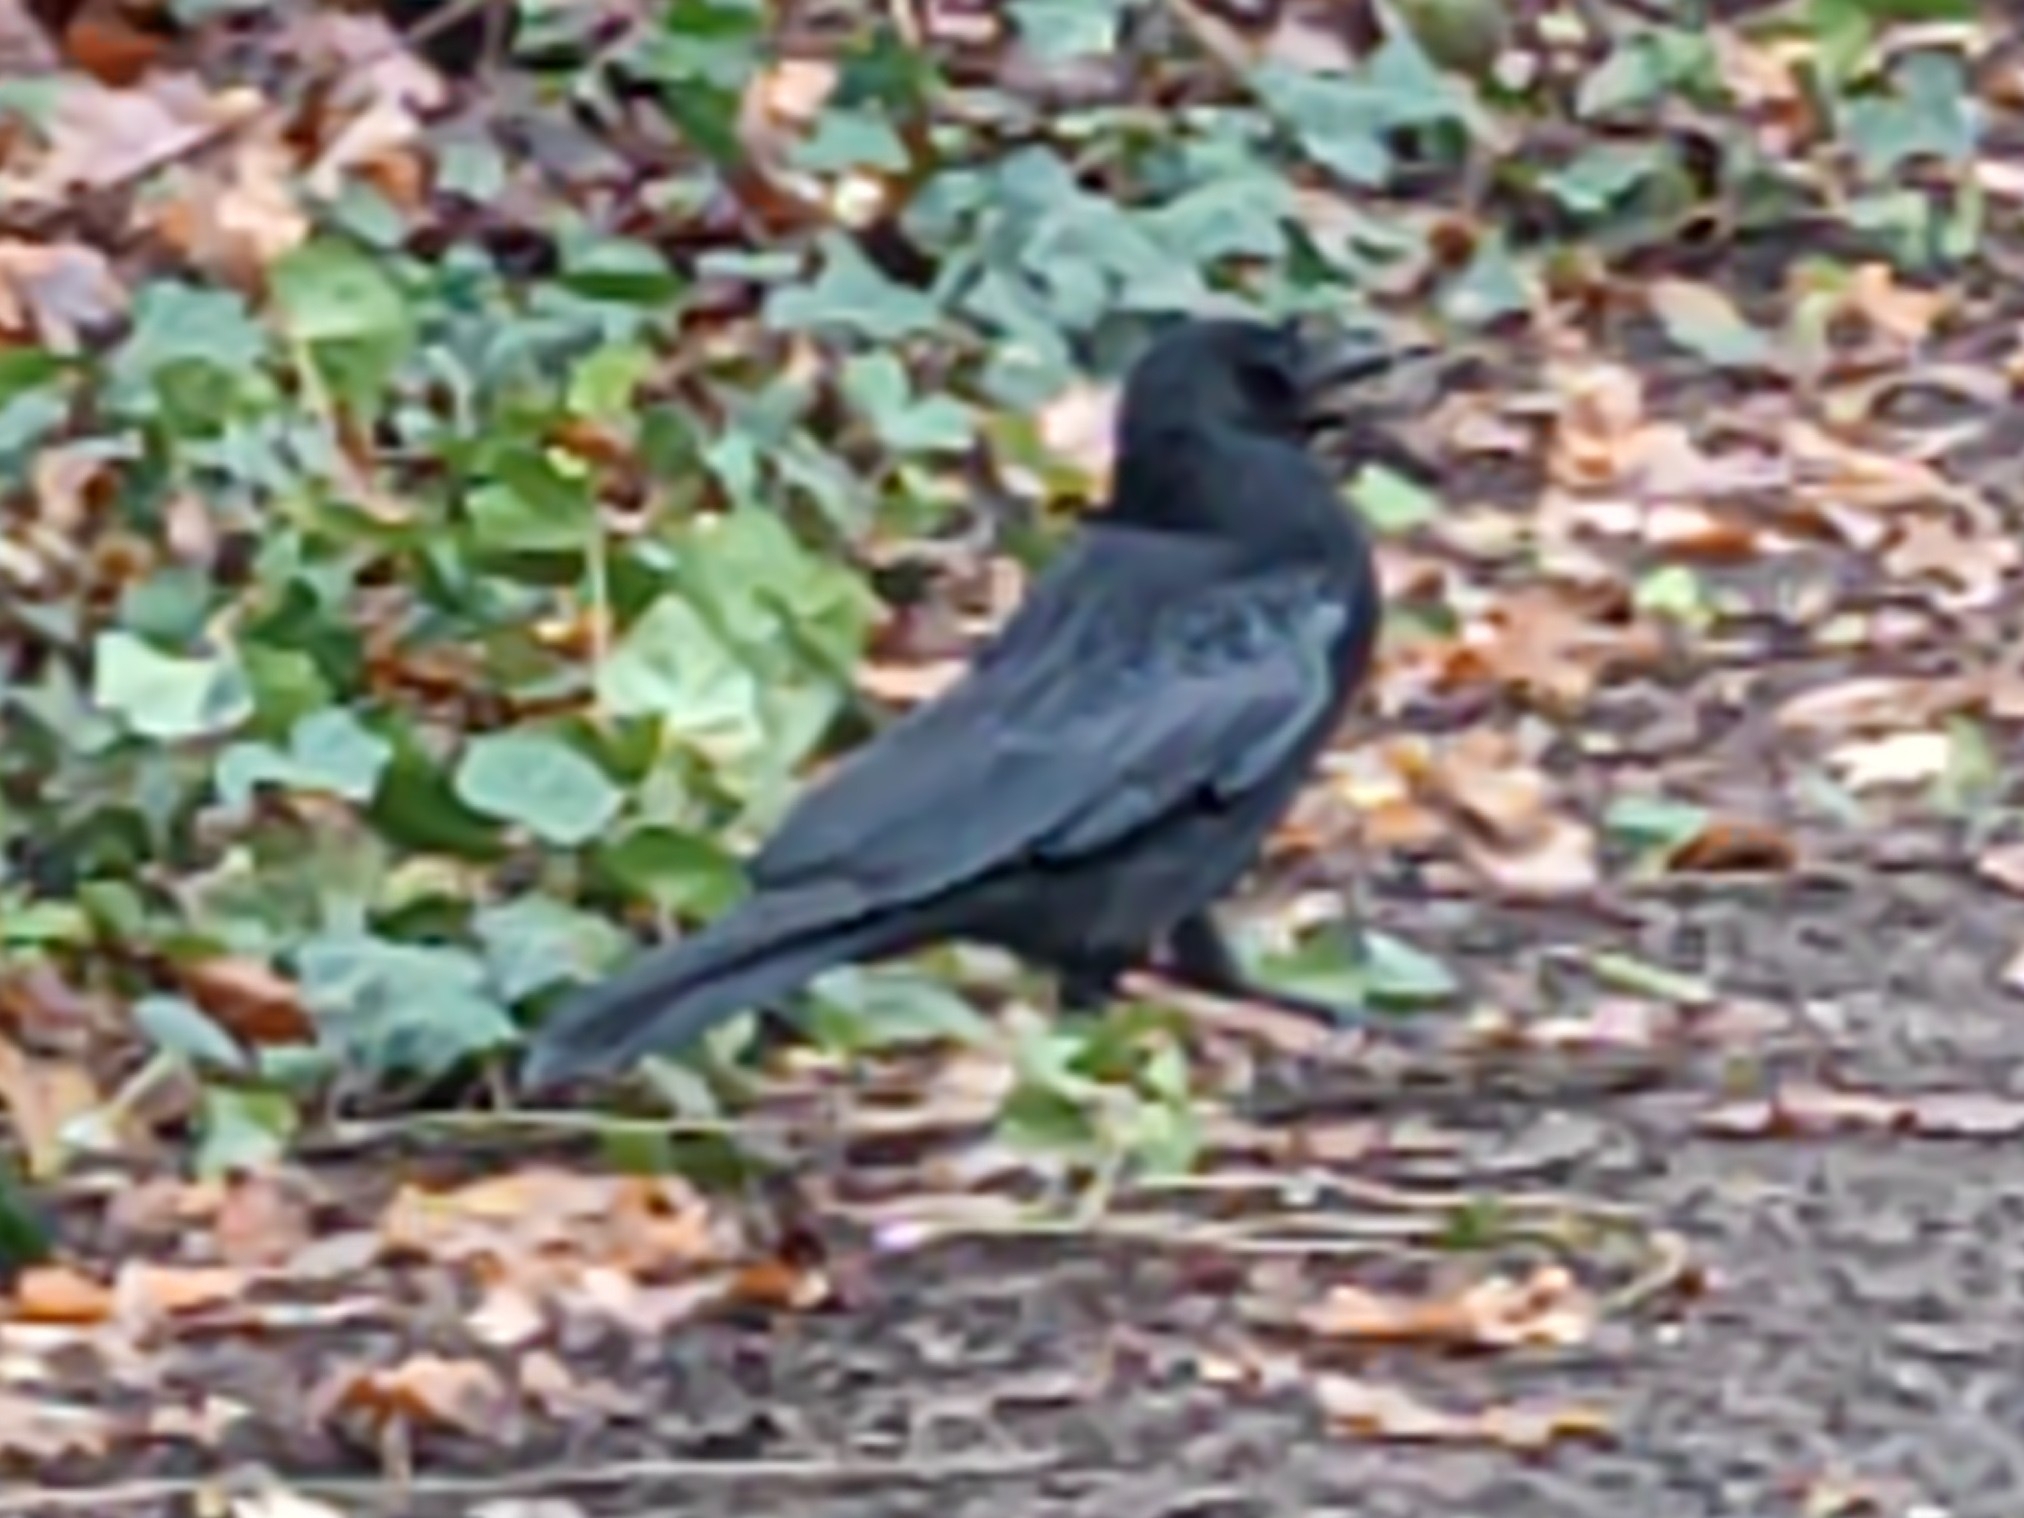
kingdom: Animalia
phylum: Chordata
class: Aves
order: Passeriformes
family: Corvidae
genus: Corvus
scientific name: Corvus corone
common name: Carrion crow
